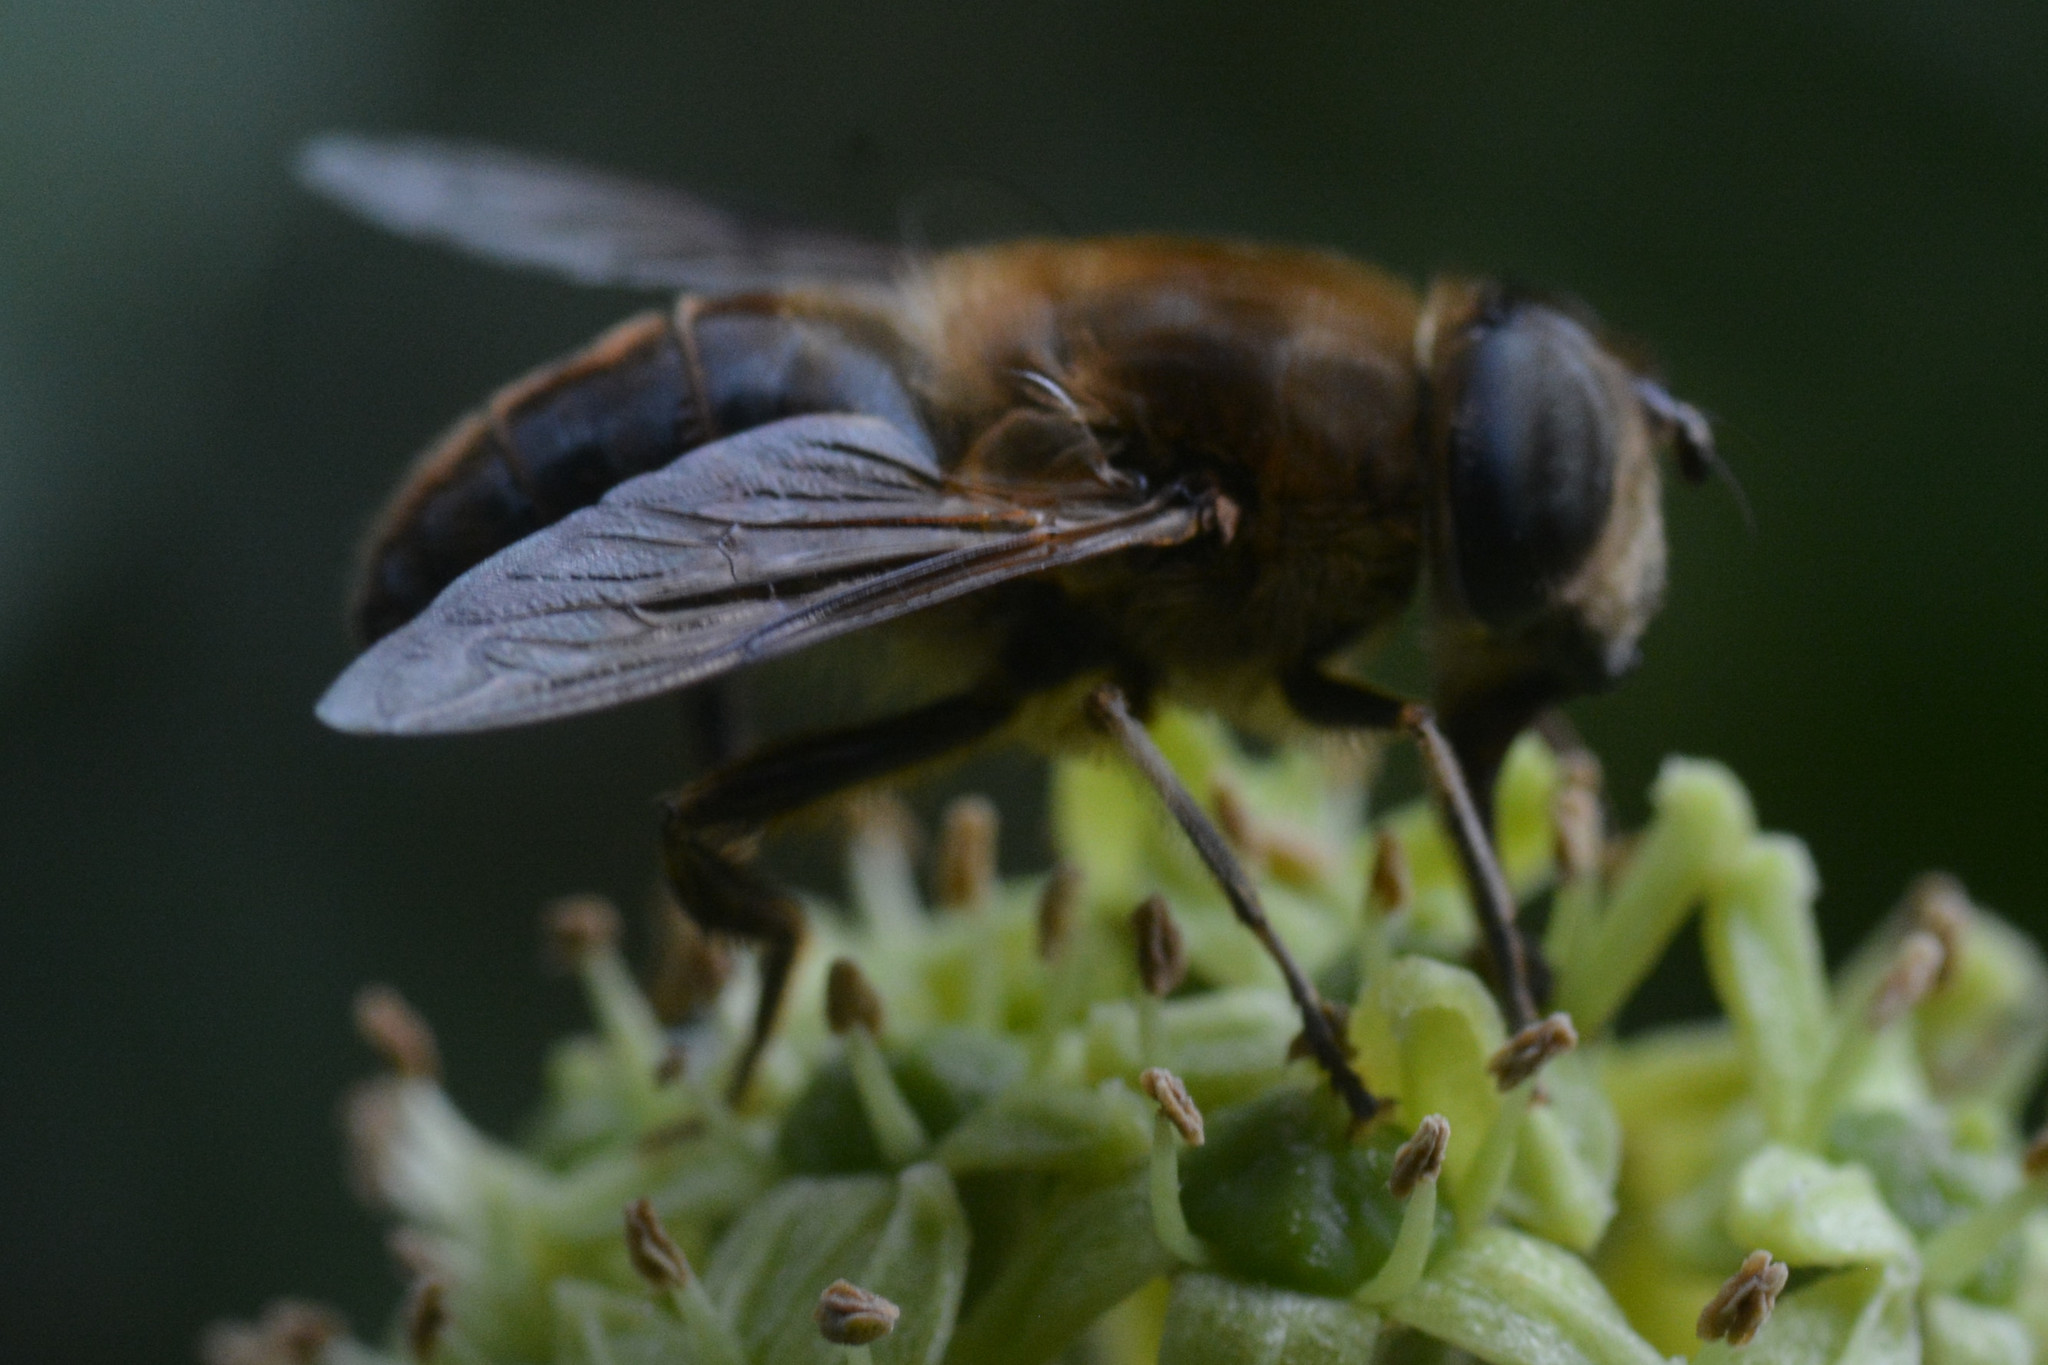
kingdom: Animalia
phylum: Arthropoda
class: Insecta
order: Diptera
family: Syrphidae
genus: Eristalis
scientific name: Eristalis tenax
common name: Drone fly
